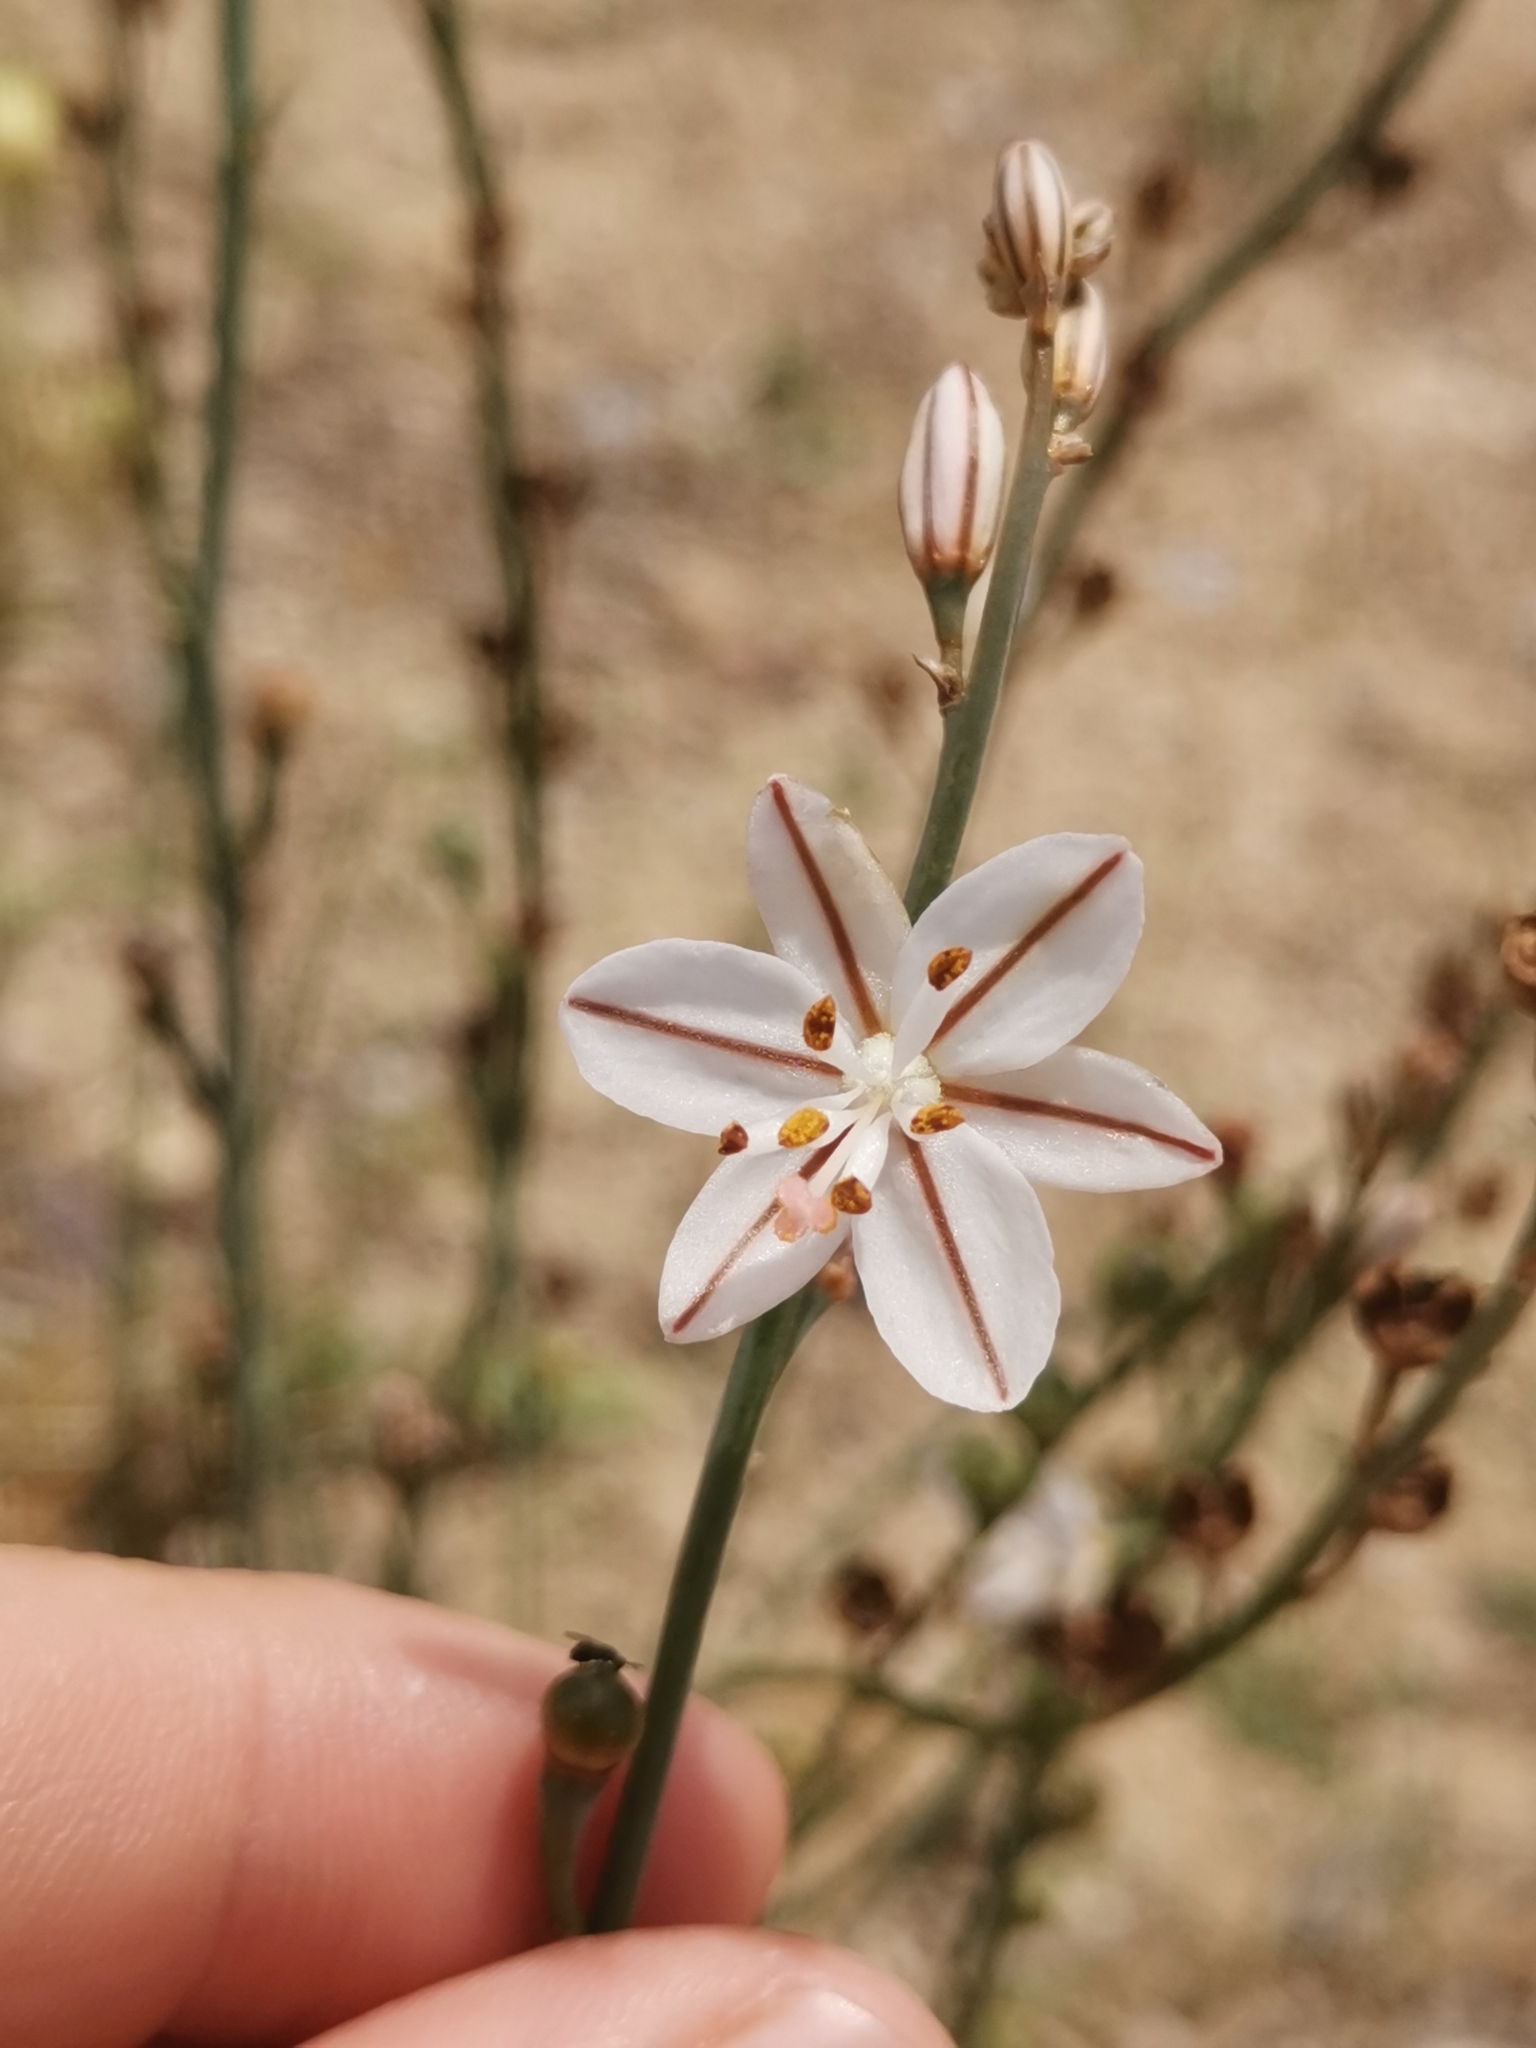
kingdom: Plantae
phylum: Tracheophyta
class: Liliopsida
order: Asparagales
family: Asphodelaceae
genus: Asphodelus
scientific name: Asphodelus fistulosus
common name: Onionweed
